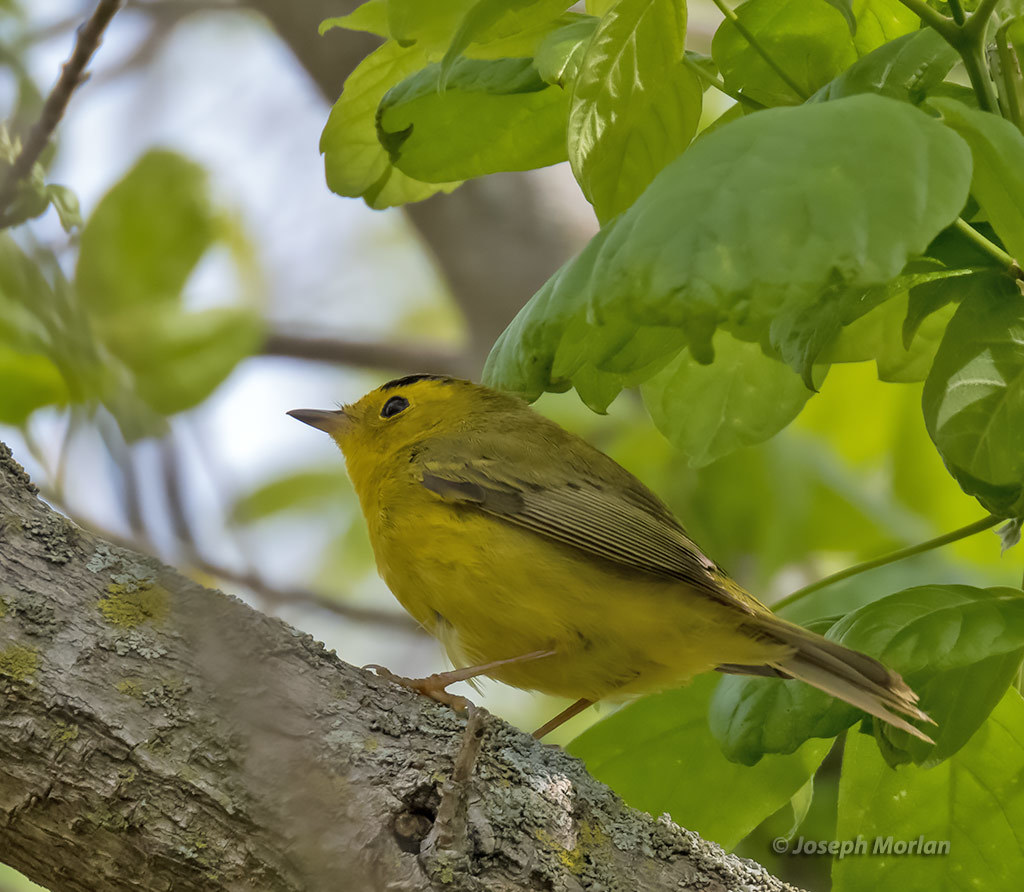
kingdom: Animalia
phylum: Chordata
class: Aves
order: Passeriformes
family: Parulidae
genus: Cardellina
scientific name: Cardellina pusilla
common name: Wilson's warbler
